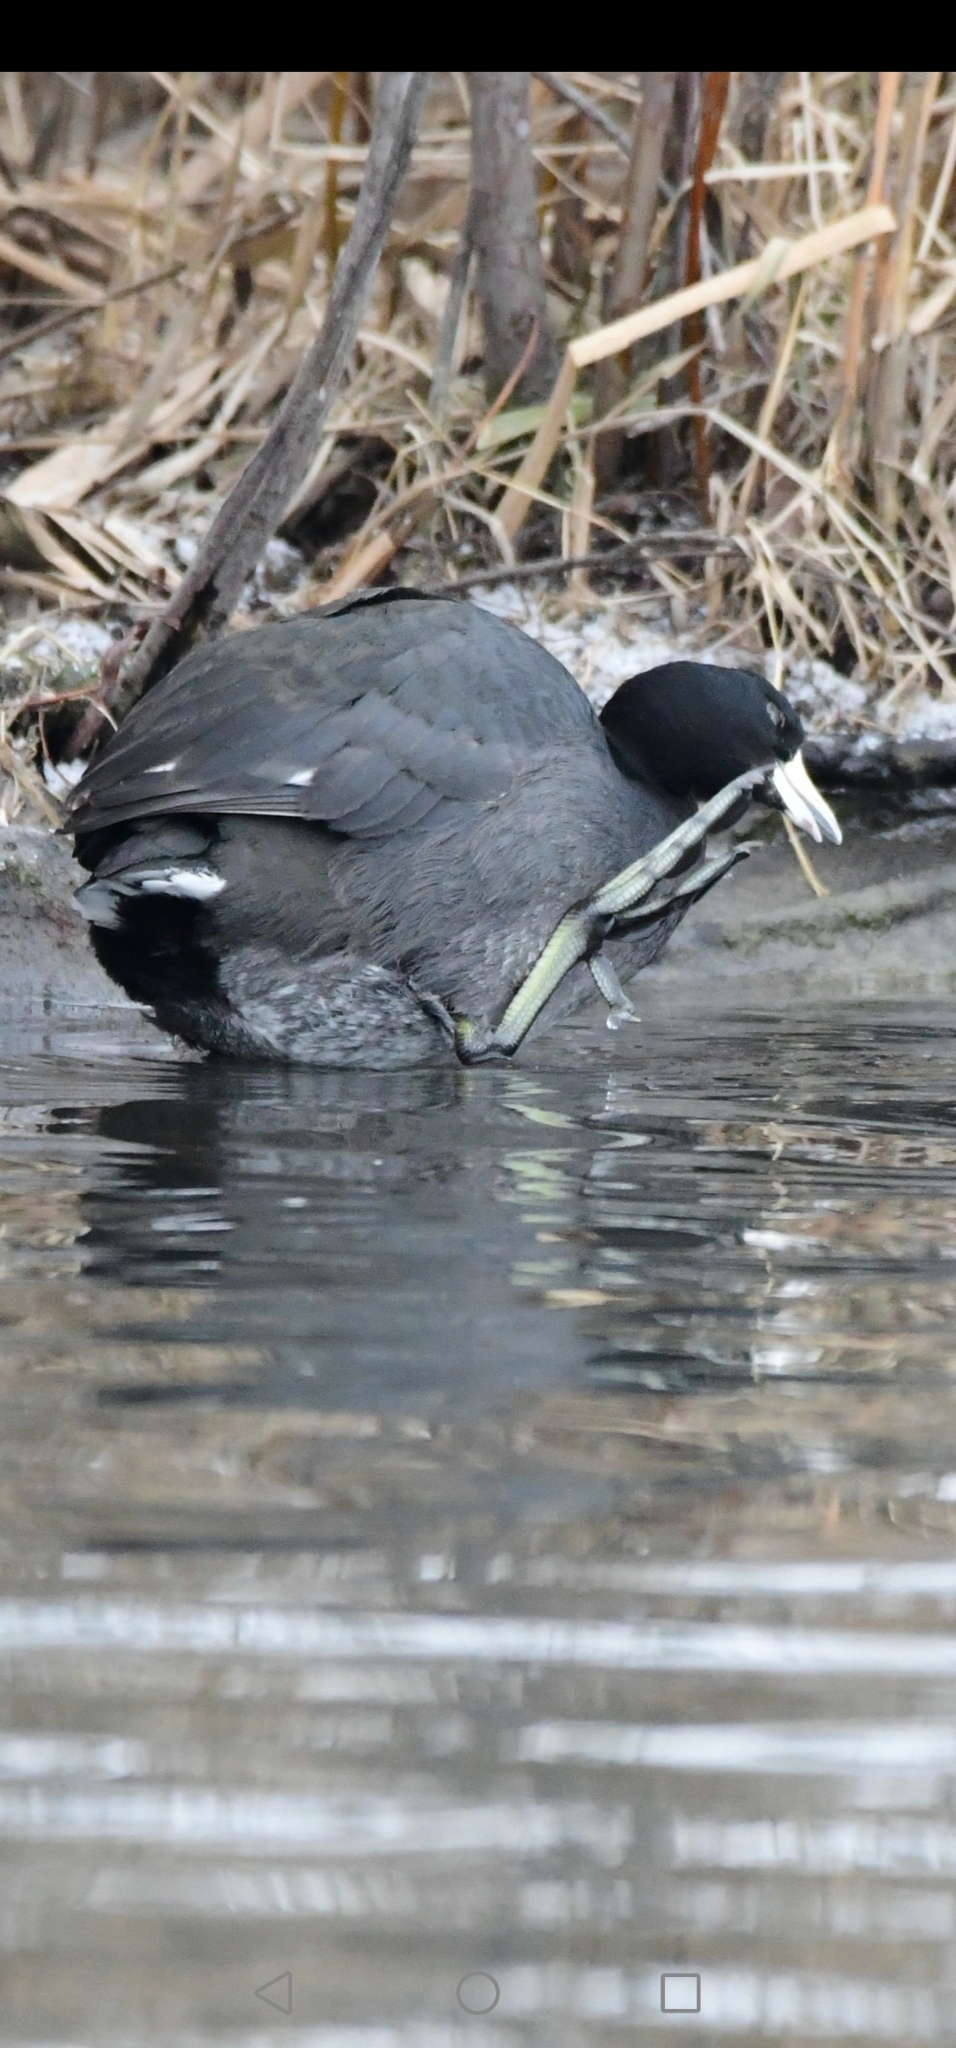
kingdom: Animalia
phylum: Chordata
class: Aves
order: Gruiformes
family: Rallidae
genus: Fulica
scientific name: Fulica americana
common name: American coot
